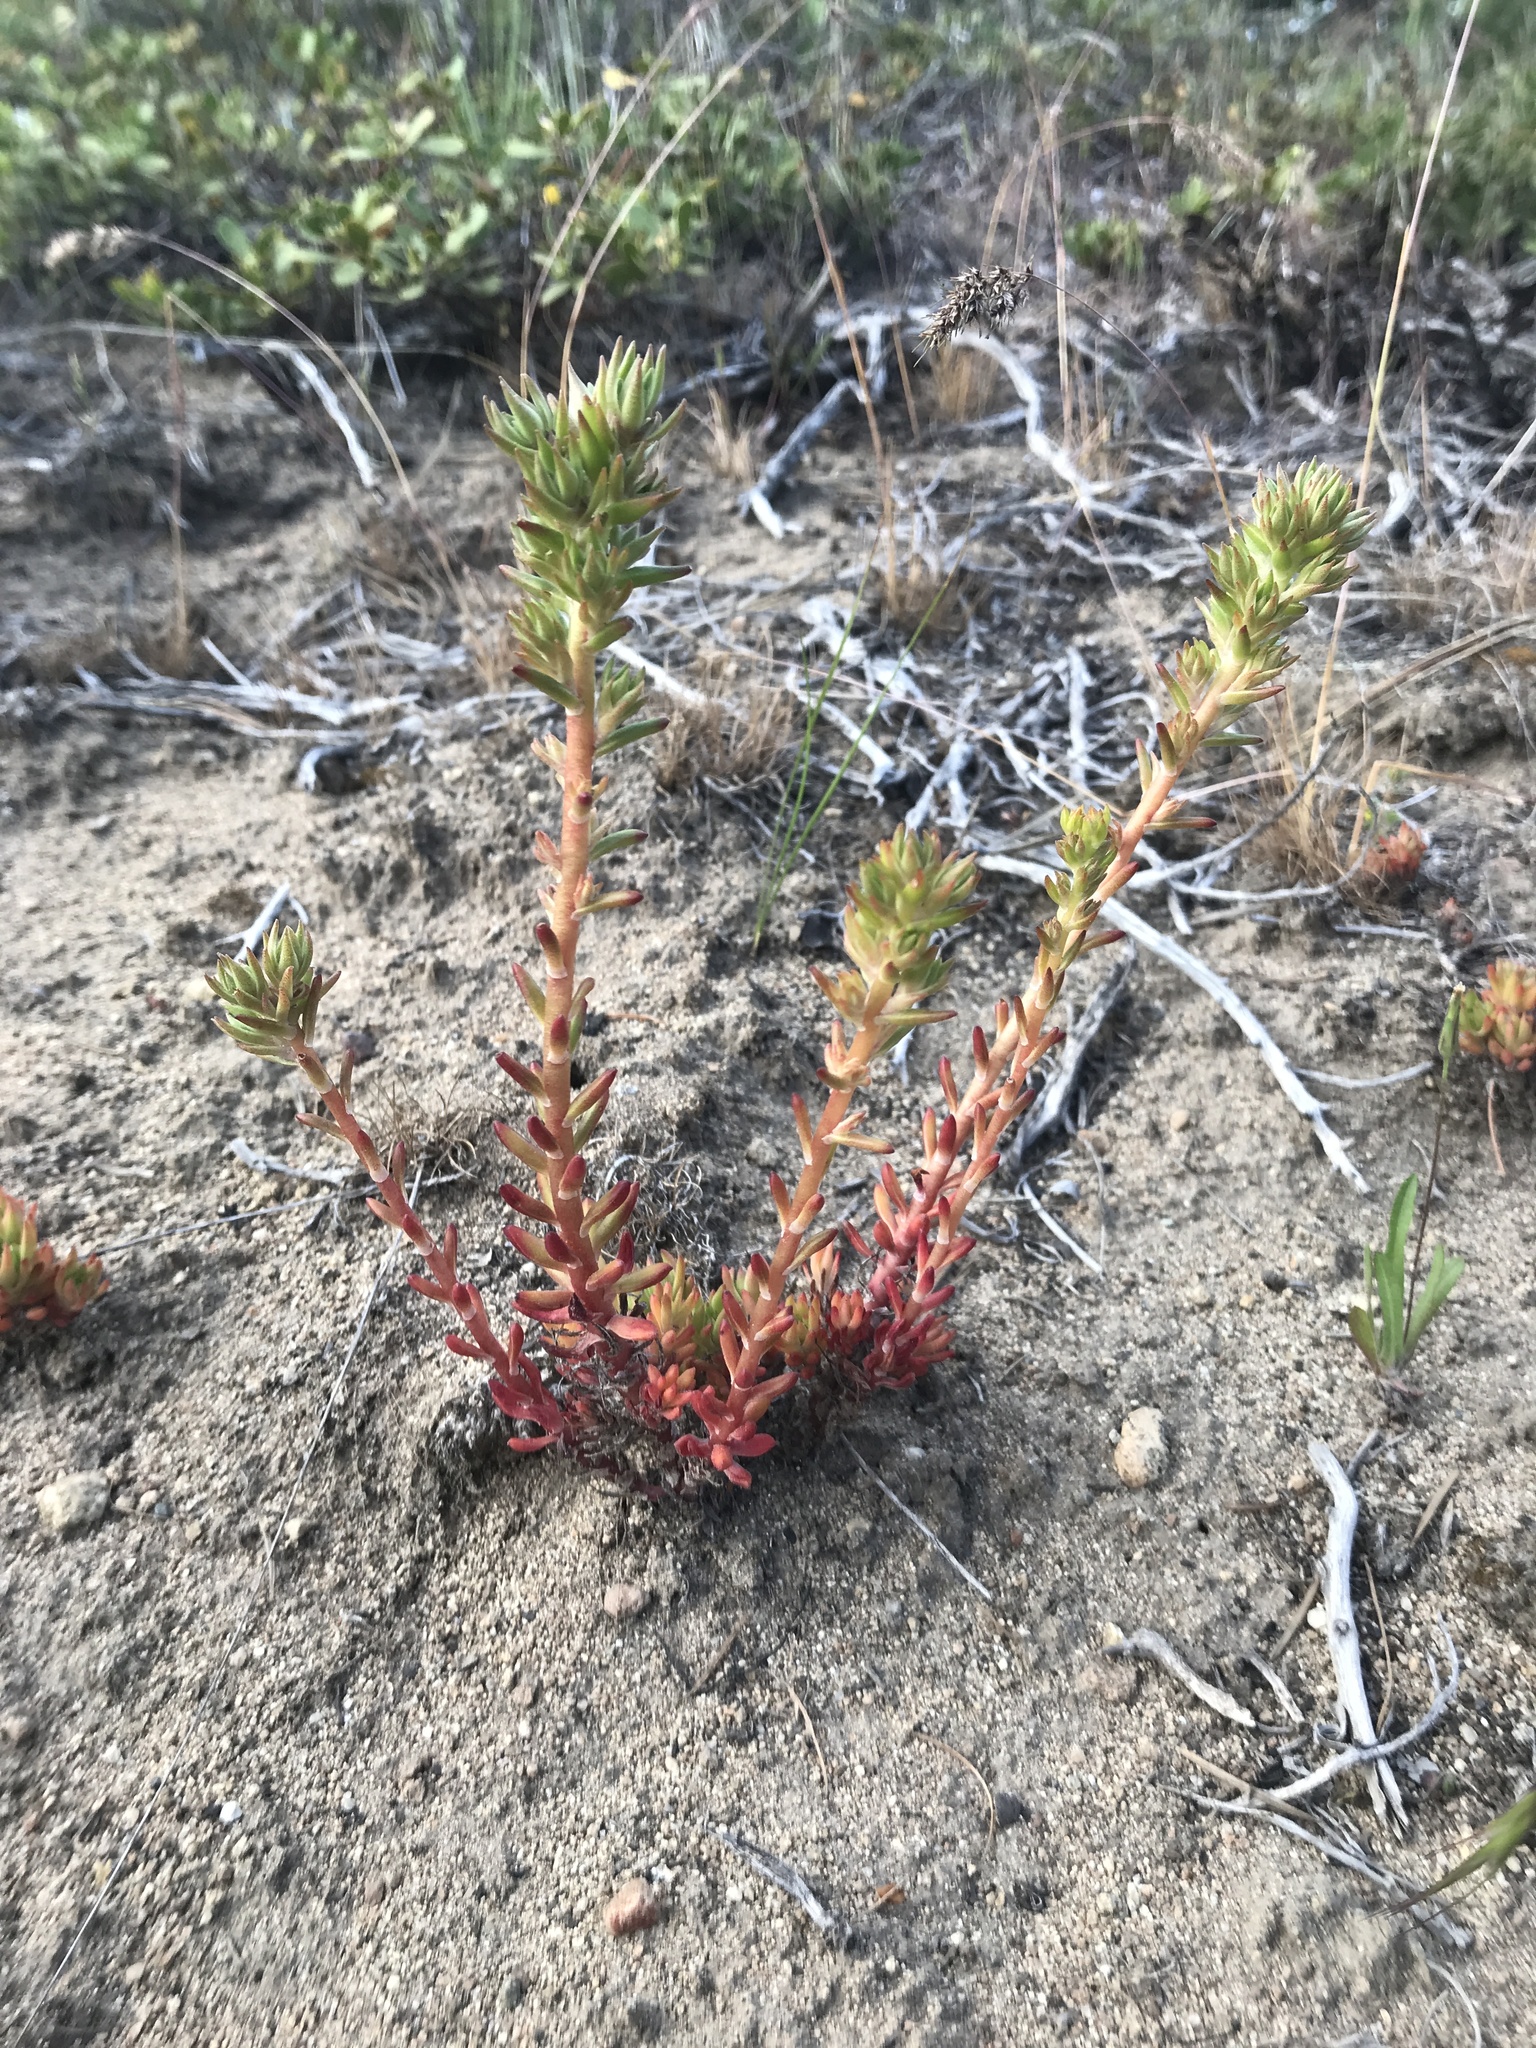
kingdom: Plantae
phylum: Tracheophyta
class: Magnoliopsida
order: Saxifragales
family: Crassulaceae
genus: Sedum
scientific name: Sedum stenopetalum
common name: Narrow-petaled stonecrop
